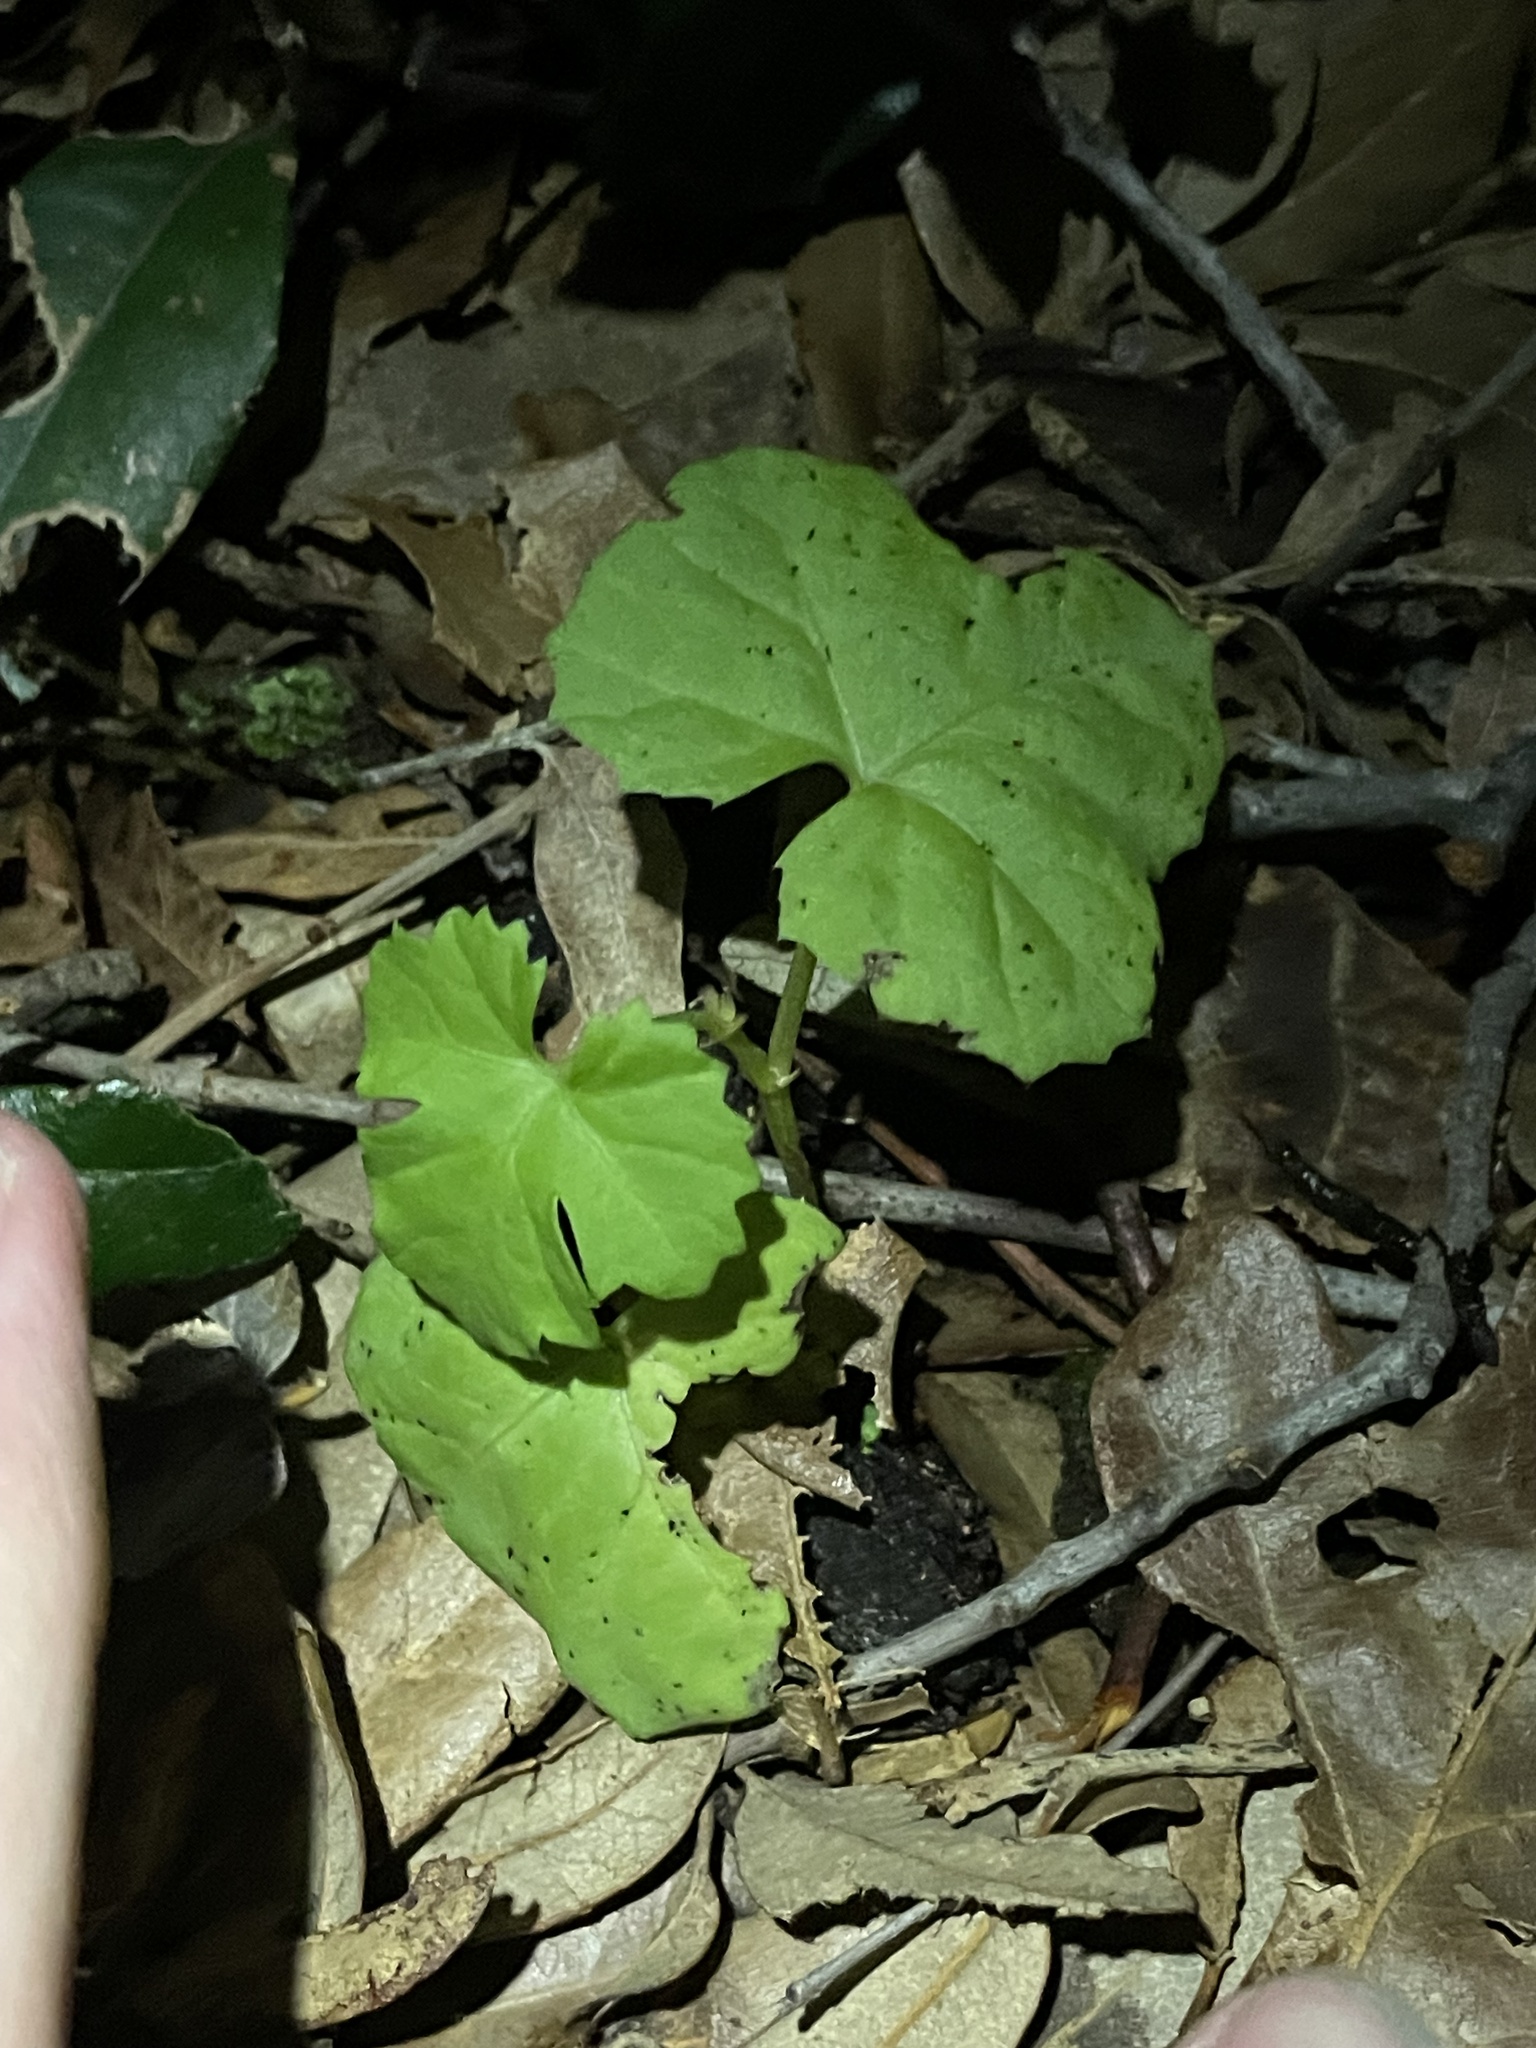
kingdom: Plantae
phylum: Tracheophyta
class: Magnoliopsida
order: Vitales
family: Vitaceae
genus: Cissus
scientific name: Cissus trifoliata
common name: Vine-sorrel
